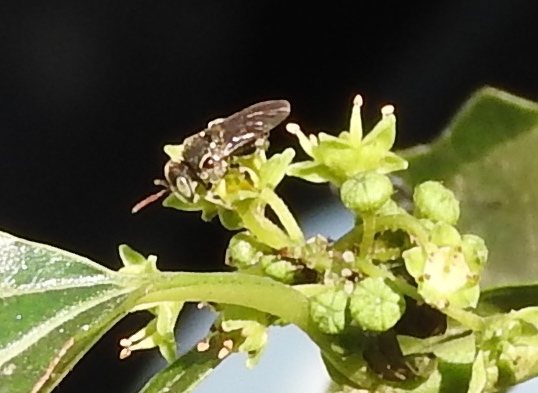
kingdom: Animalia
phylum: Arthropoda
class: Insecta
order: Hymenoptera
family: Apidae
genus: Nannotrigona
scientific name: Nannotrigona perilampoides
